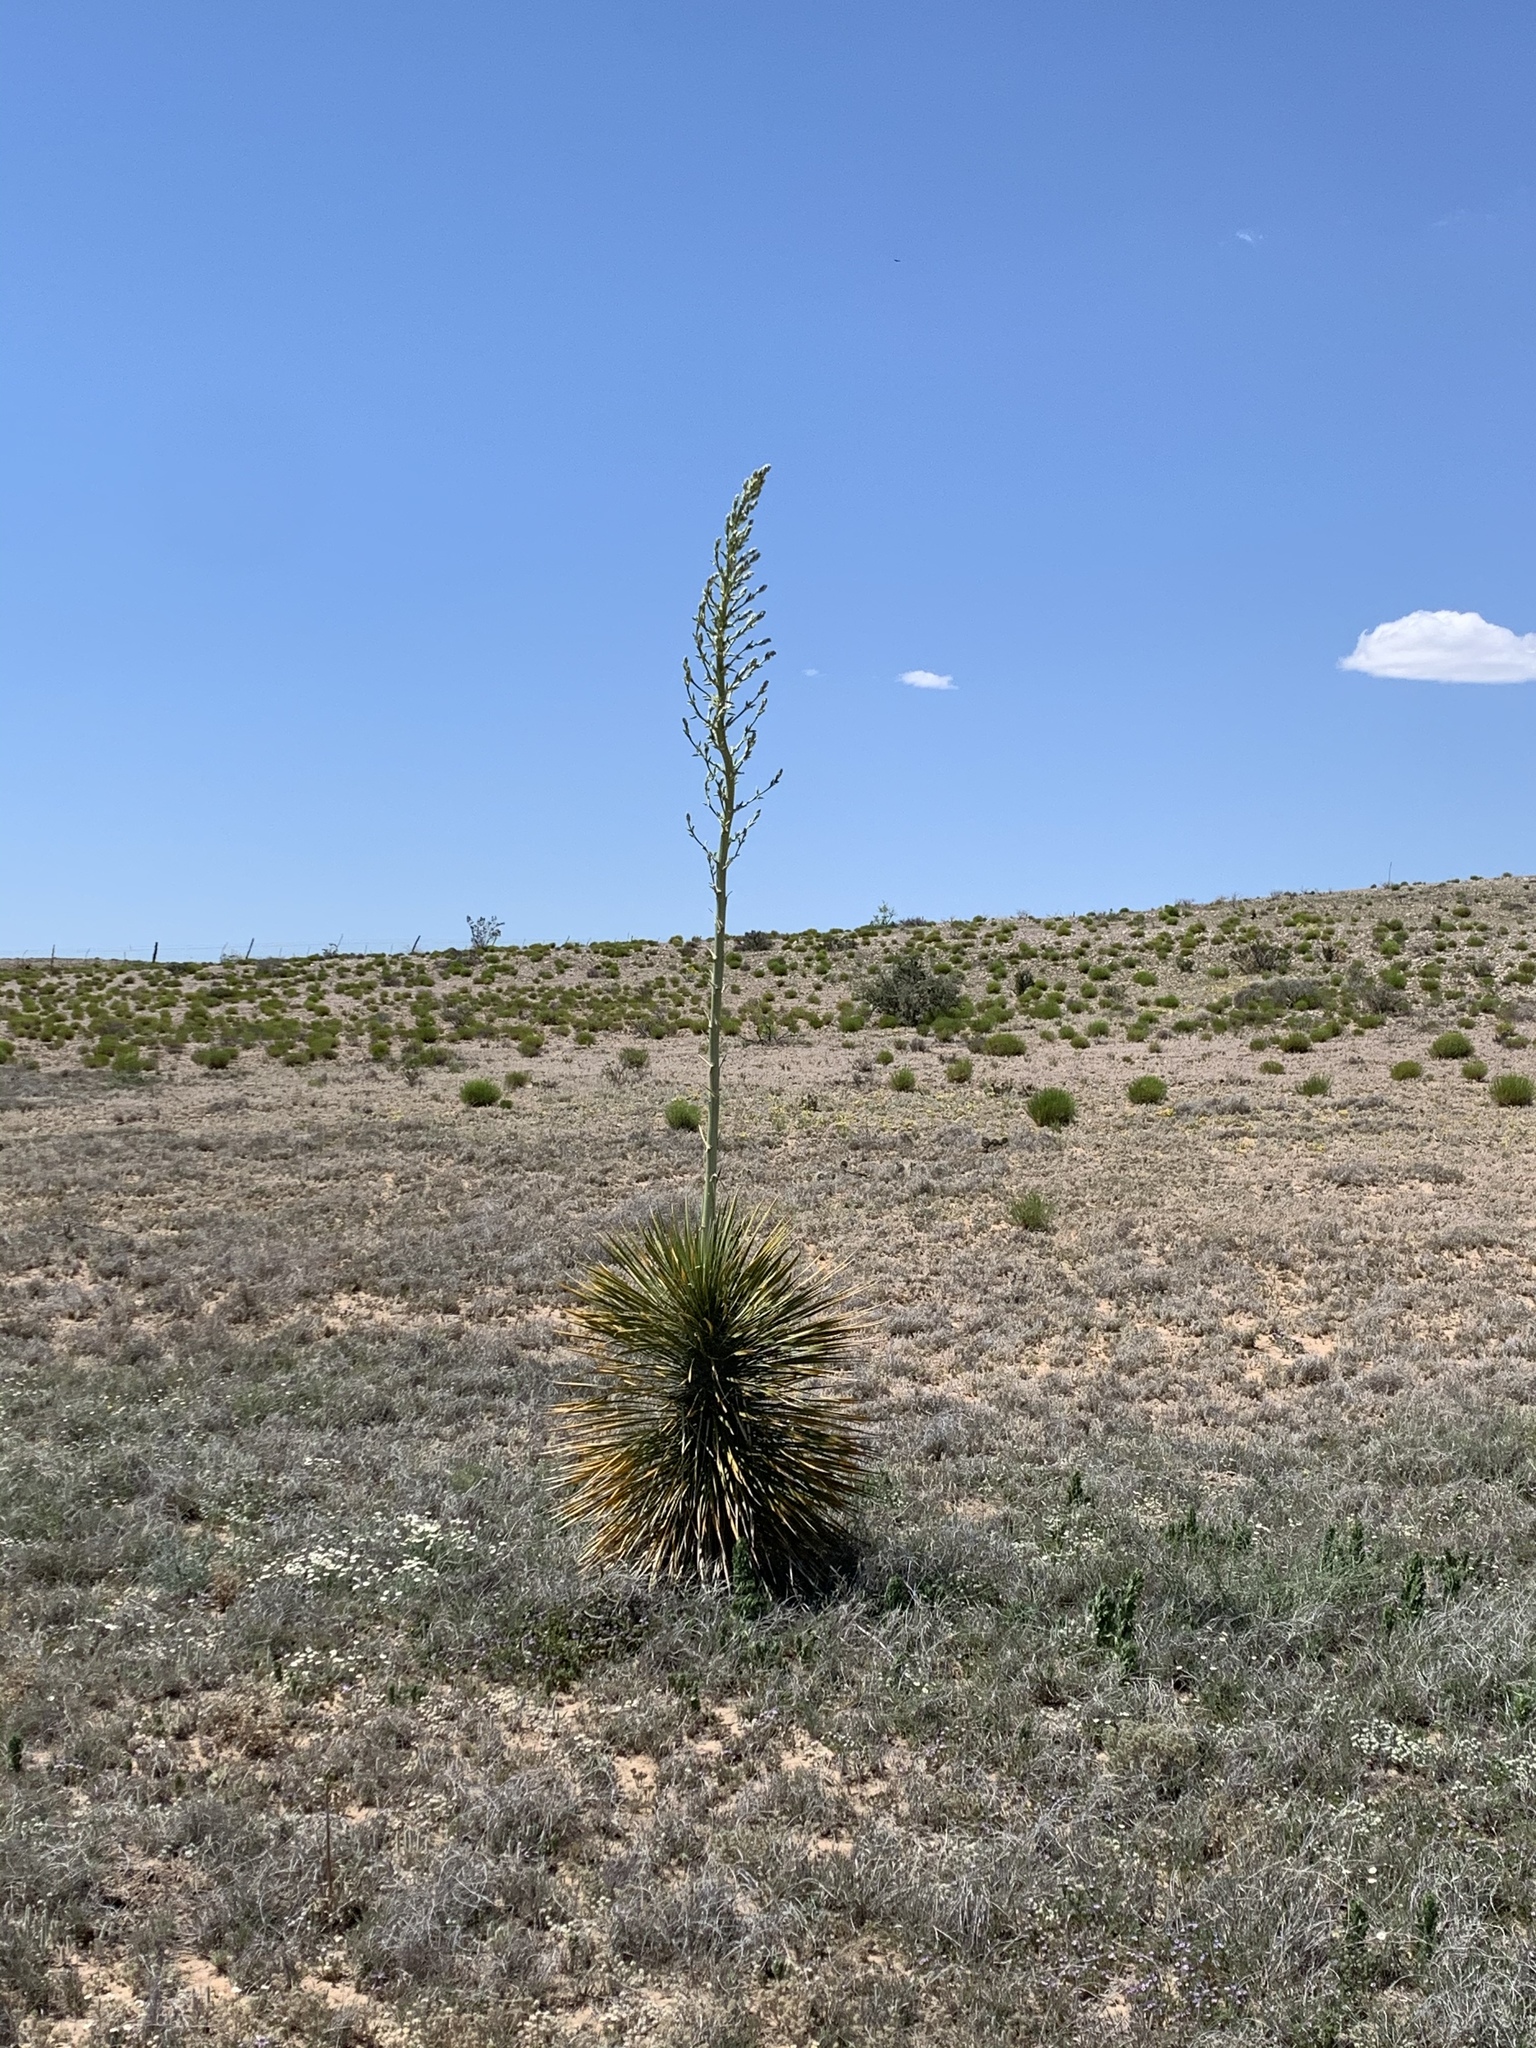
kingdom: Plantae
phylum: Tracheophyta
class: Liliopsida
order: Asparagales
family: Asparagaceae
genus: Yucca
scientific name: Yucca elata
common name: Palmella
